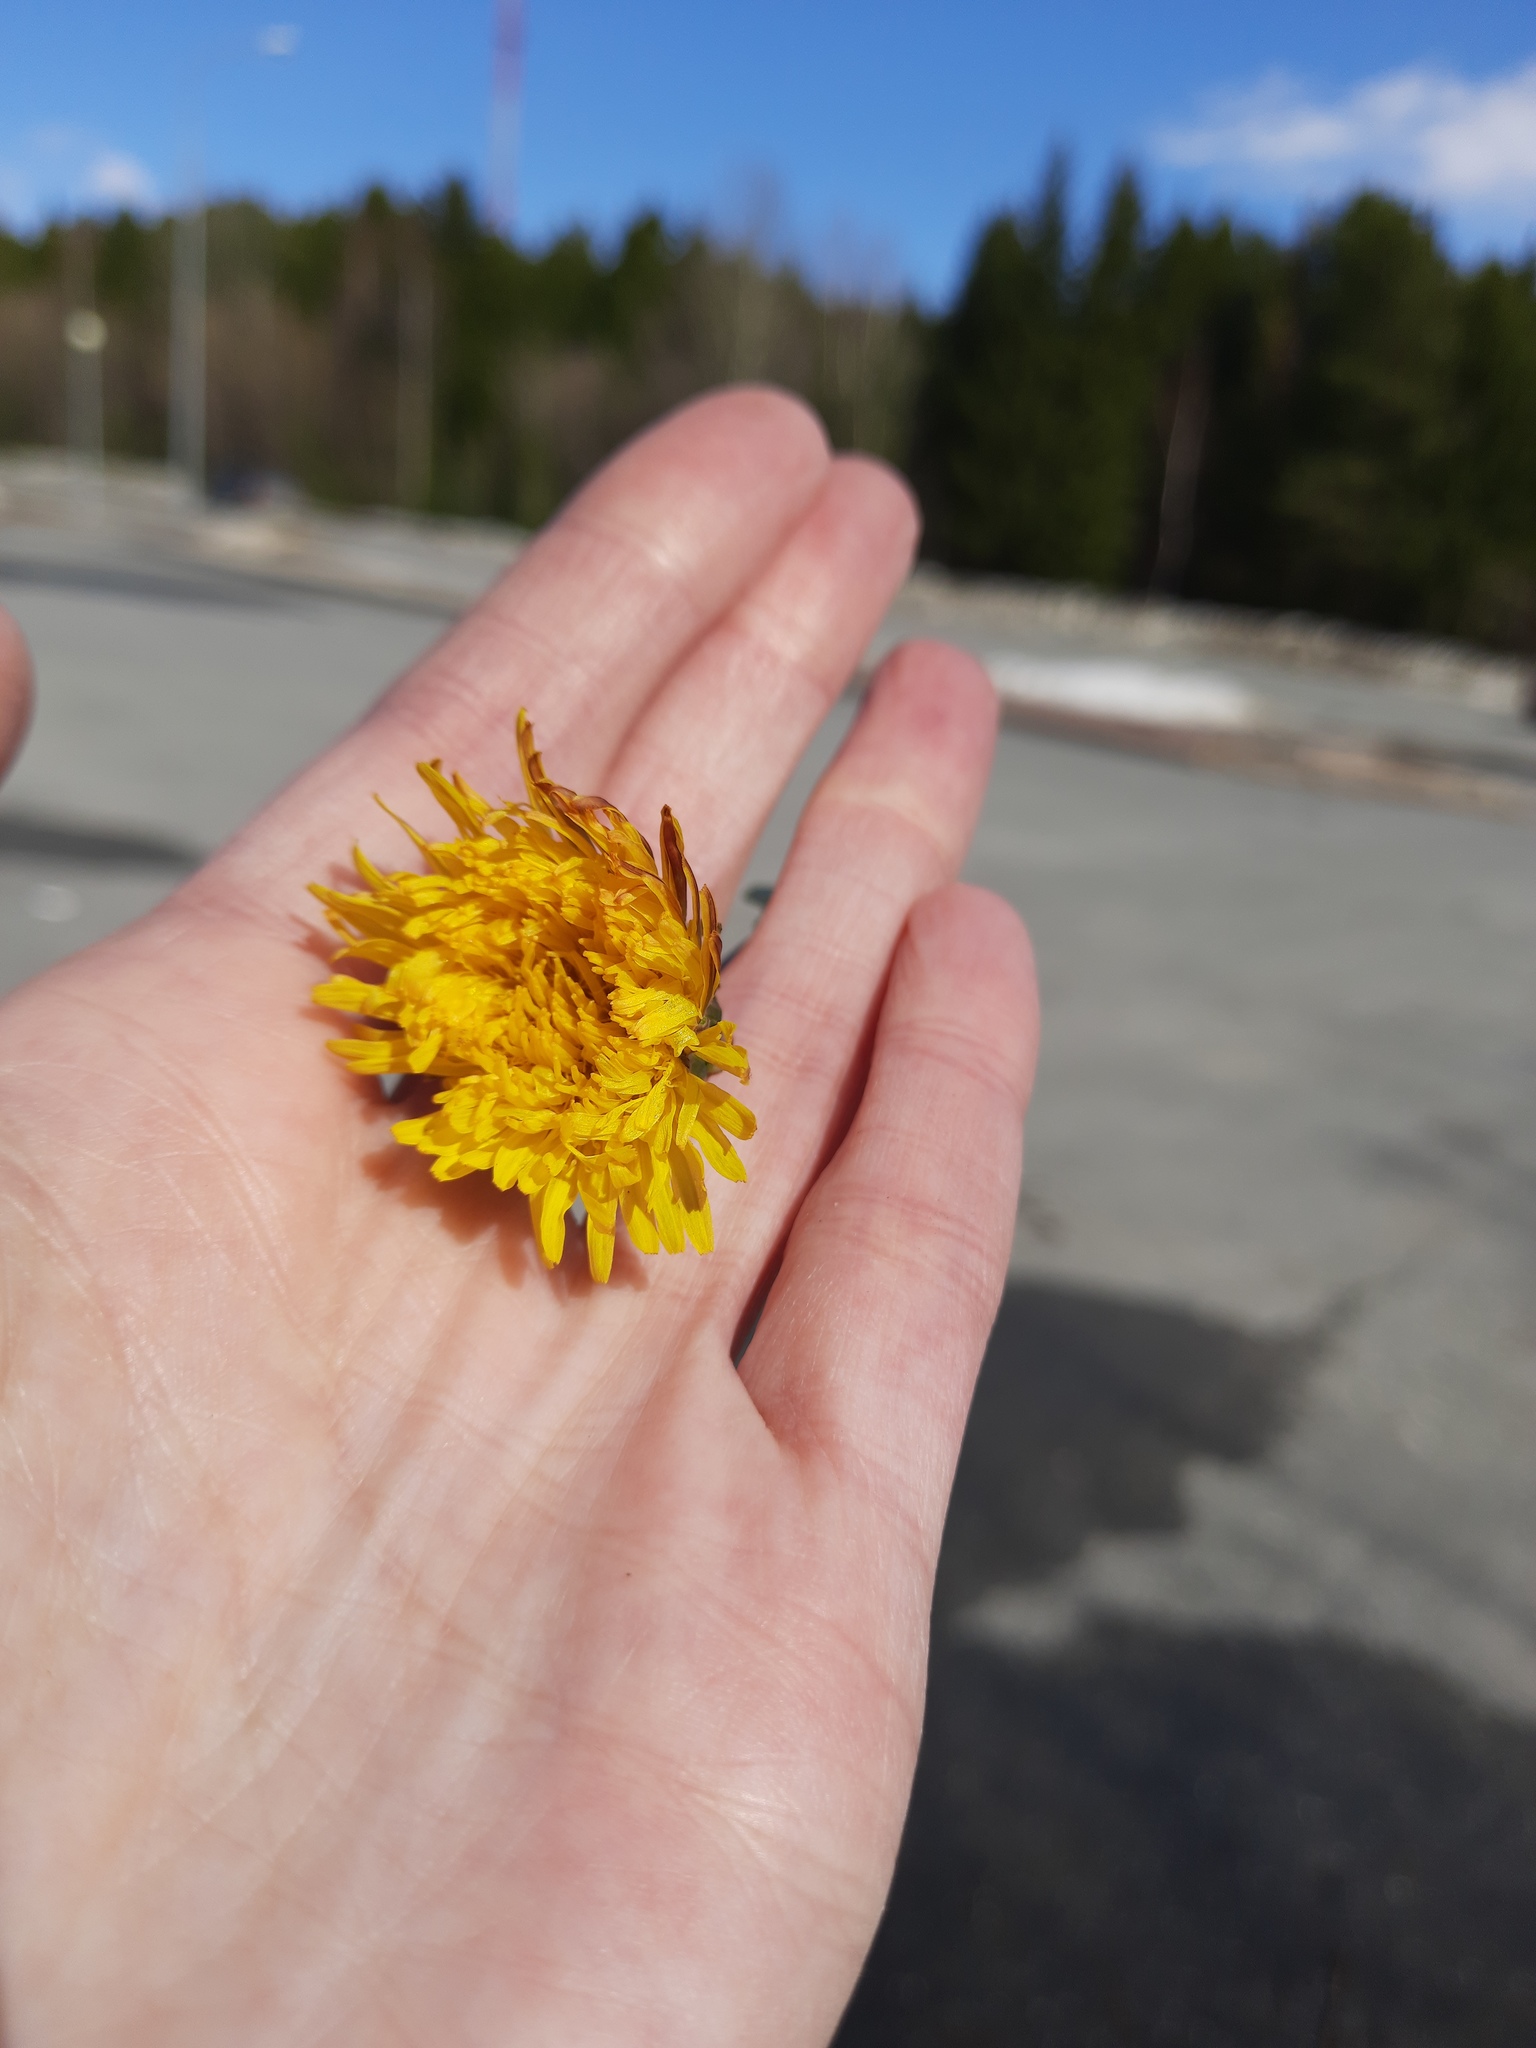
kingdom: Plantae
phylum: Tracheophyta
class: Magnoliopsida
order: Asterales
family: Asteraceae
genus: Taraxacum
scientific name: Taraxacum officinale
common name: Common dandelion
